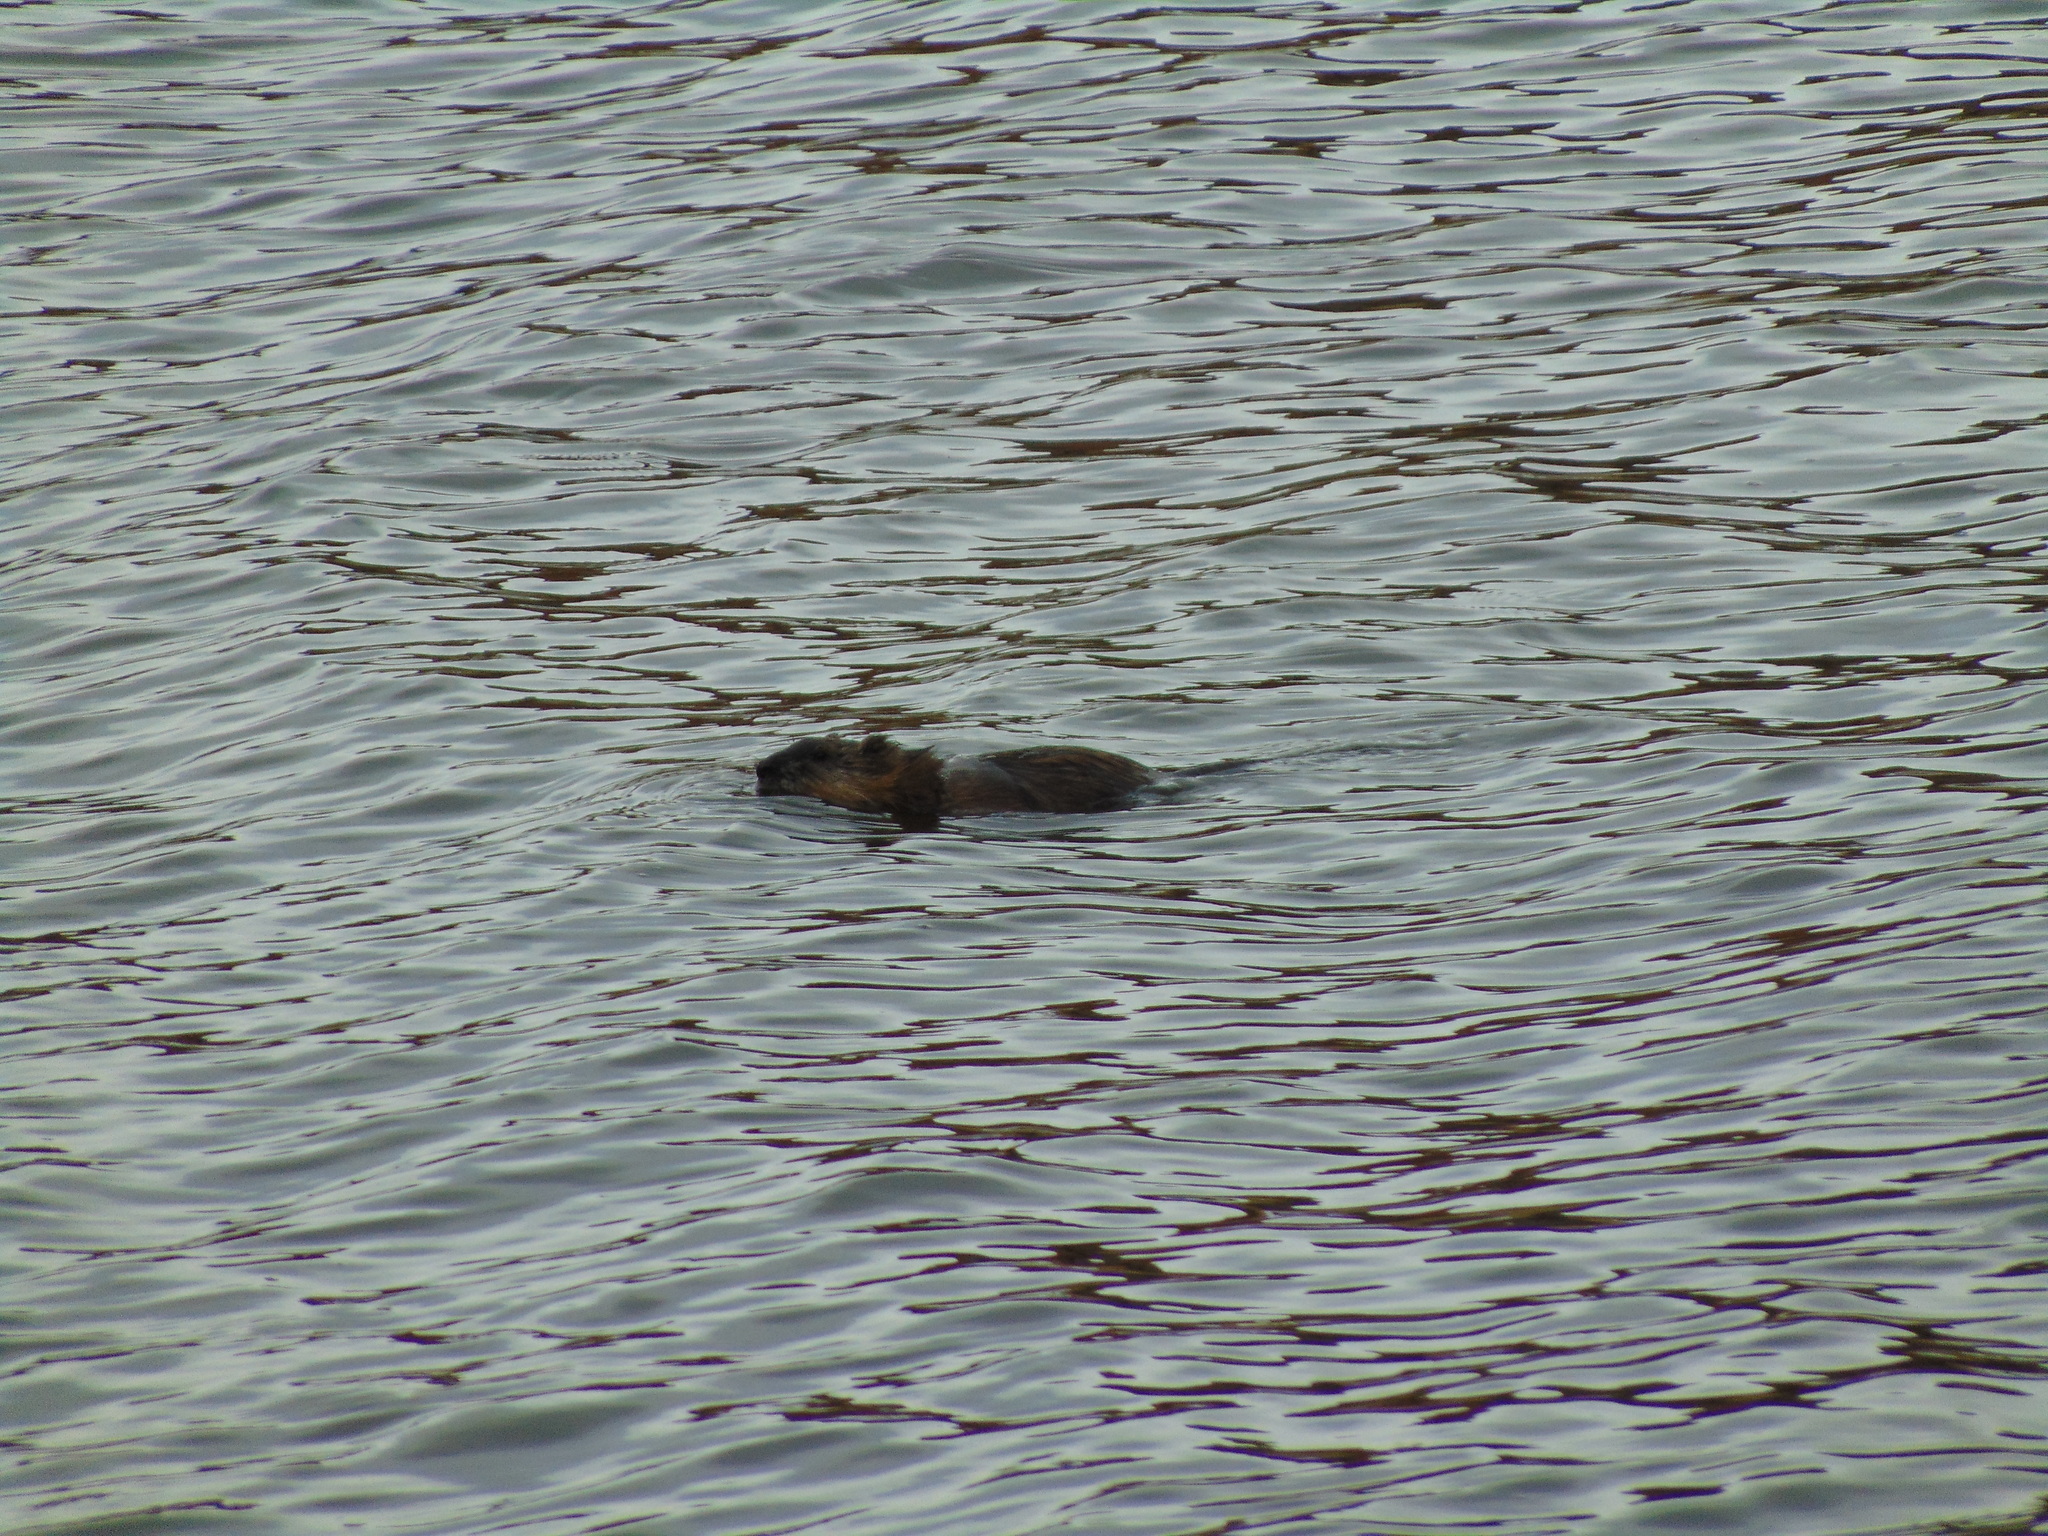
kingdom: Animalia
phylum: Chordata
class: Mammalia
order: Rodentia
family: Cricetidae
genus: Ondatra
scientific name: Ondatra zibethicus
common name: Muskrat
